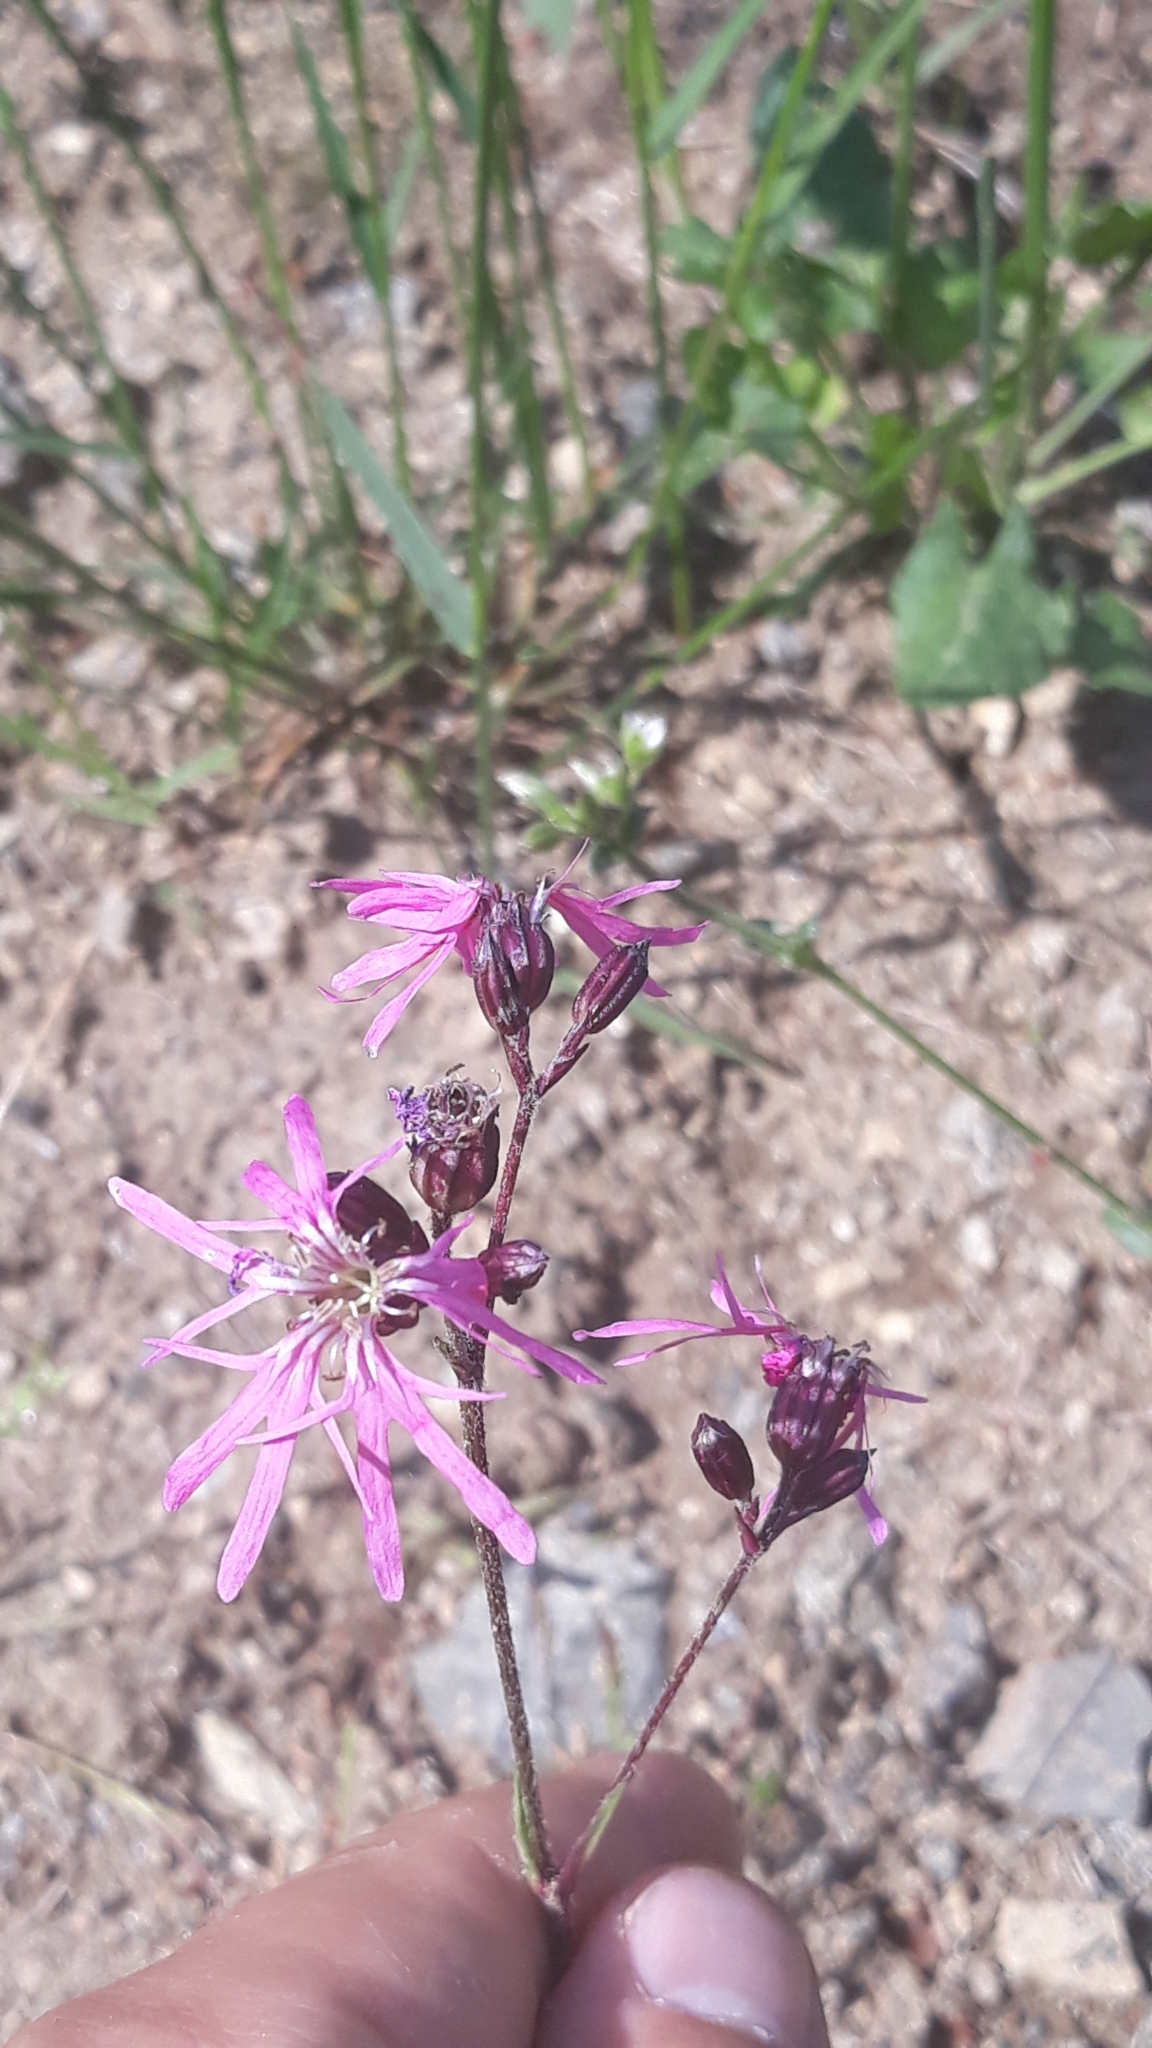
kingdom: Plantae
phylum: Tracheophyta
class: Magnoliopsida
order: Caryophyllales
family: Caryophyllaceae
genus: Silene
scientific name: Silene flos-cuculi
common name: Ragged-robin
